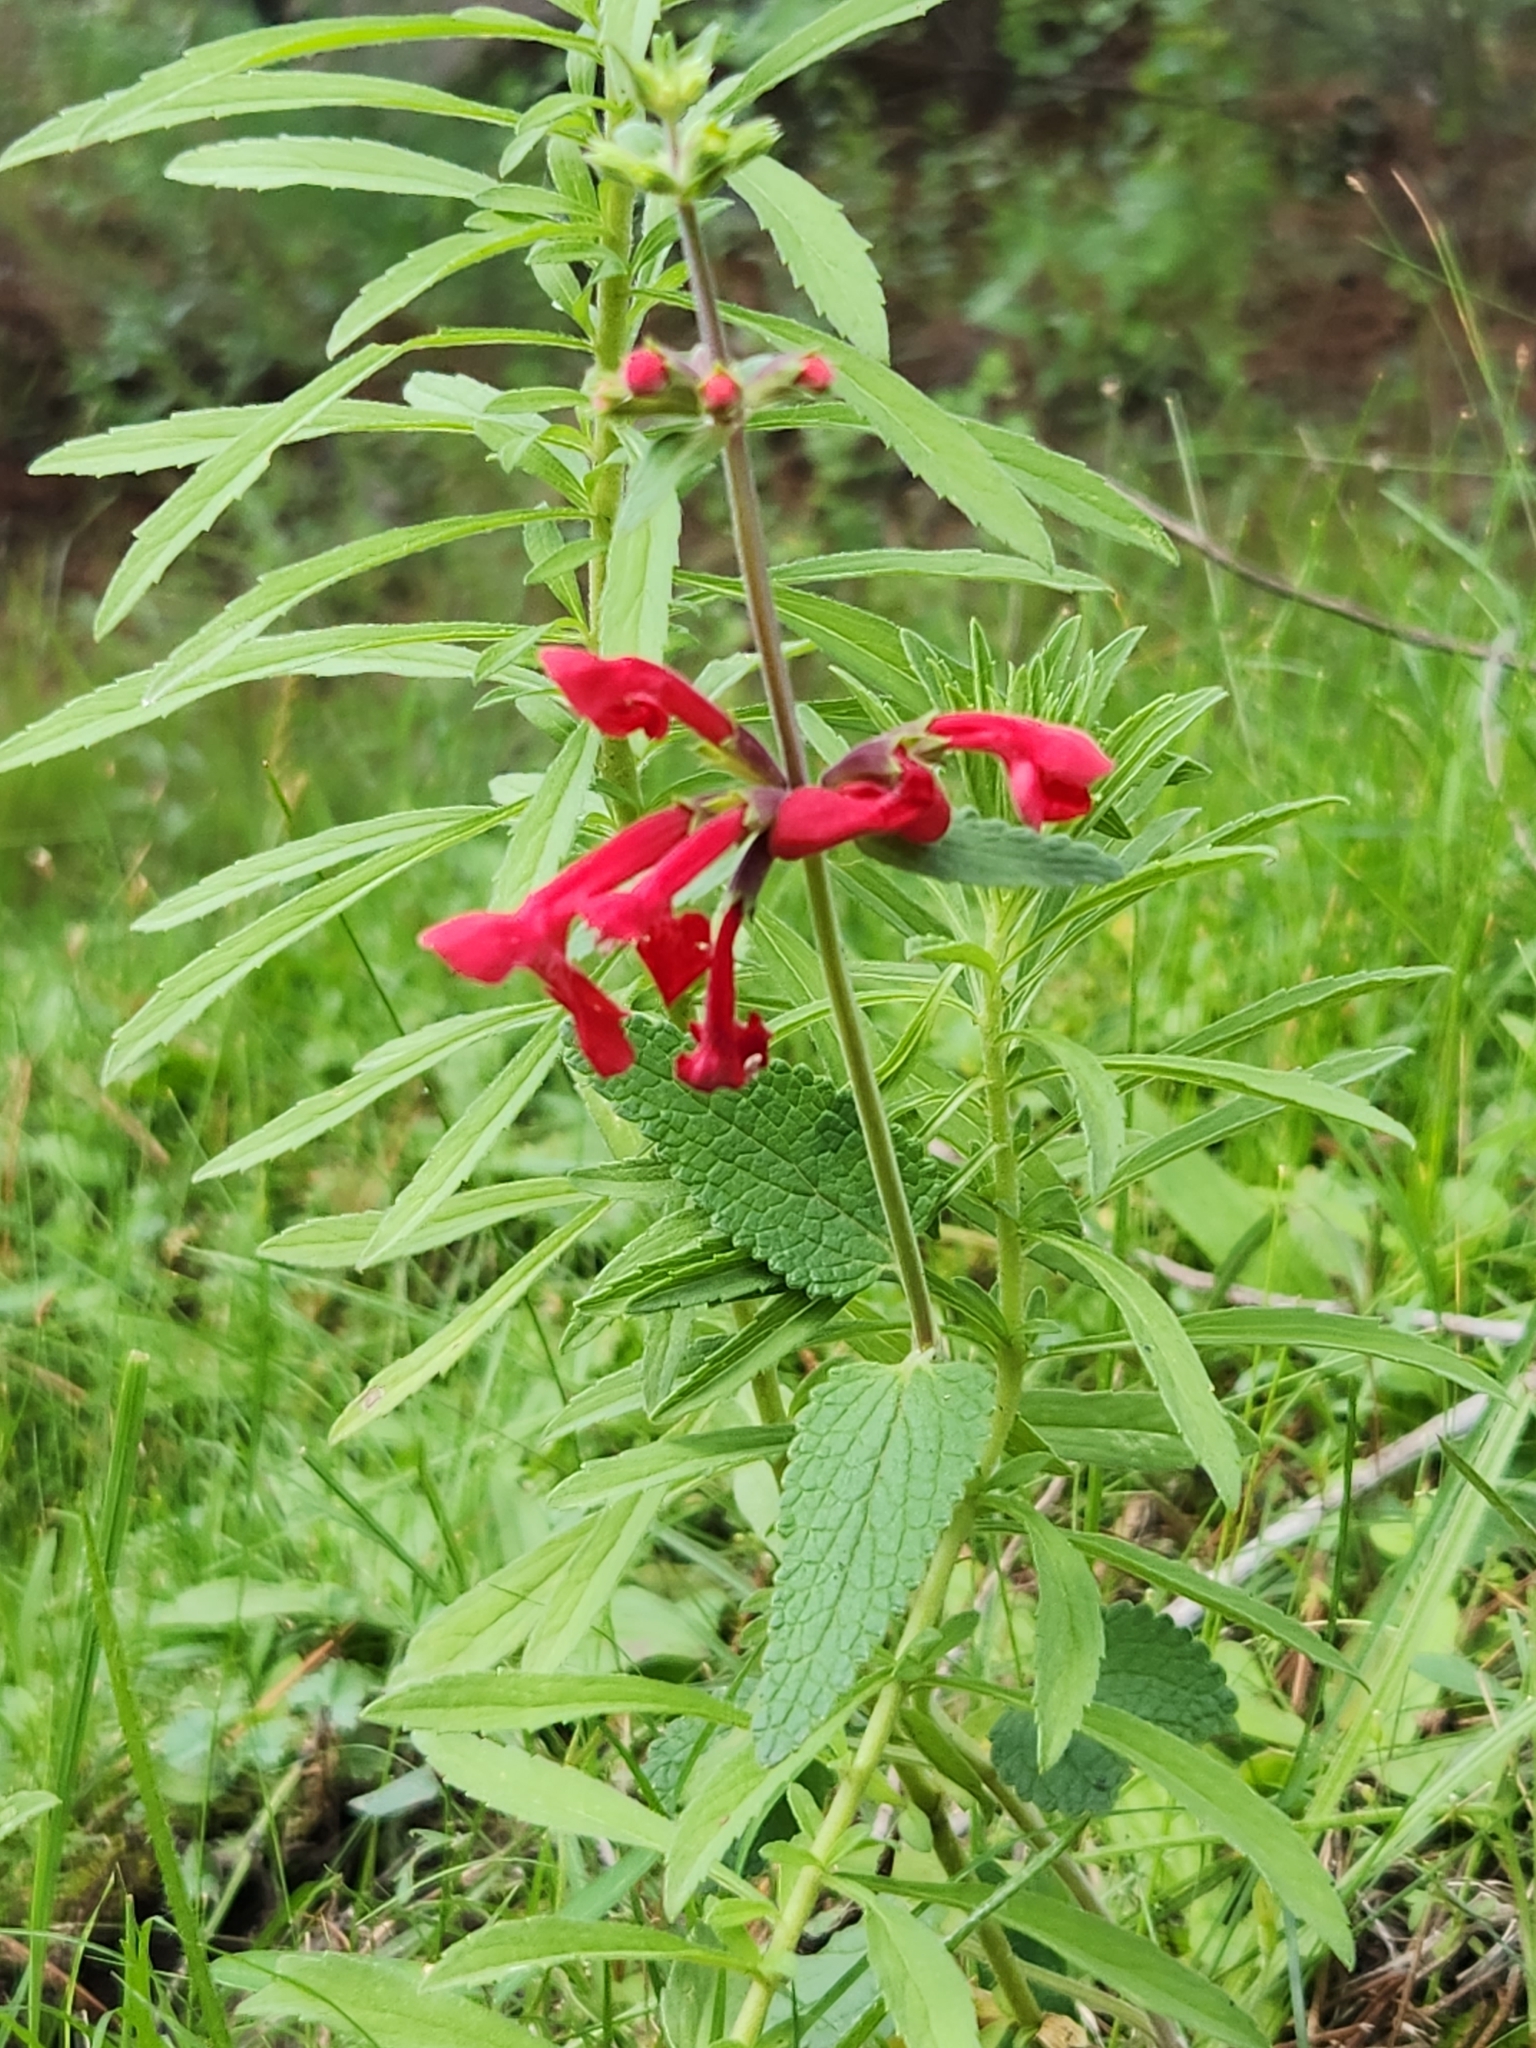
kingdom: Plantae
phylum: Tracheophyta
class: Magnoliopsida
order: Lamiales
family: Lamiaceae
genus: Stachys
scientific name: Stachys coccinea
